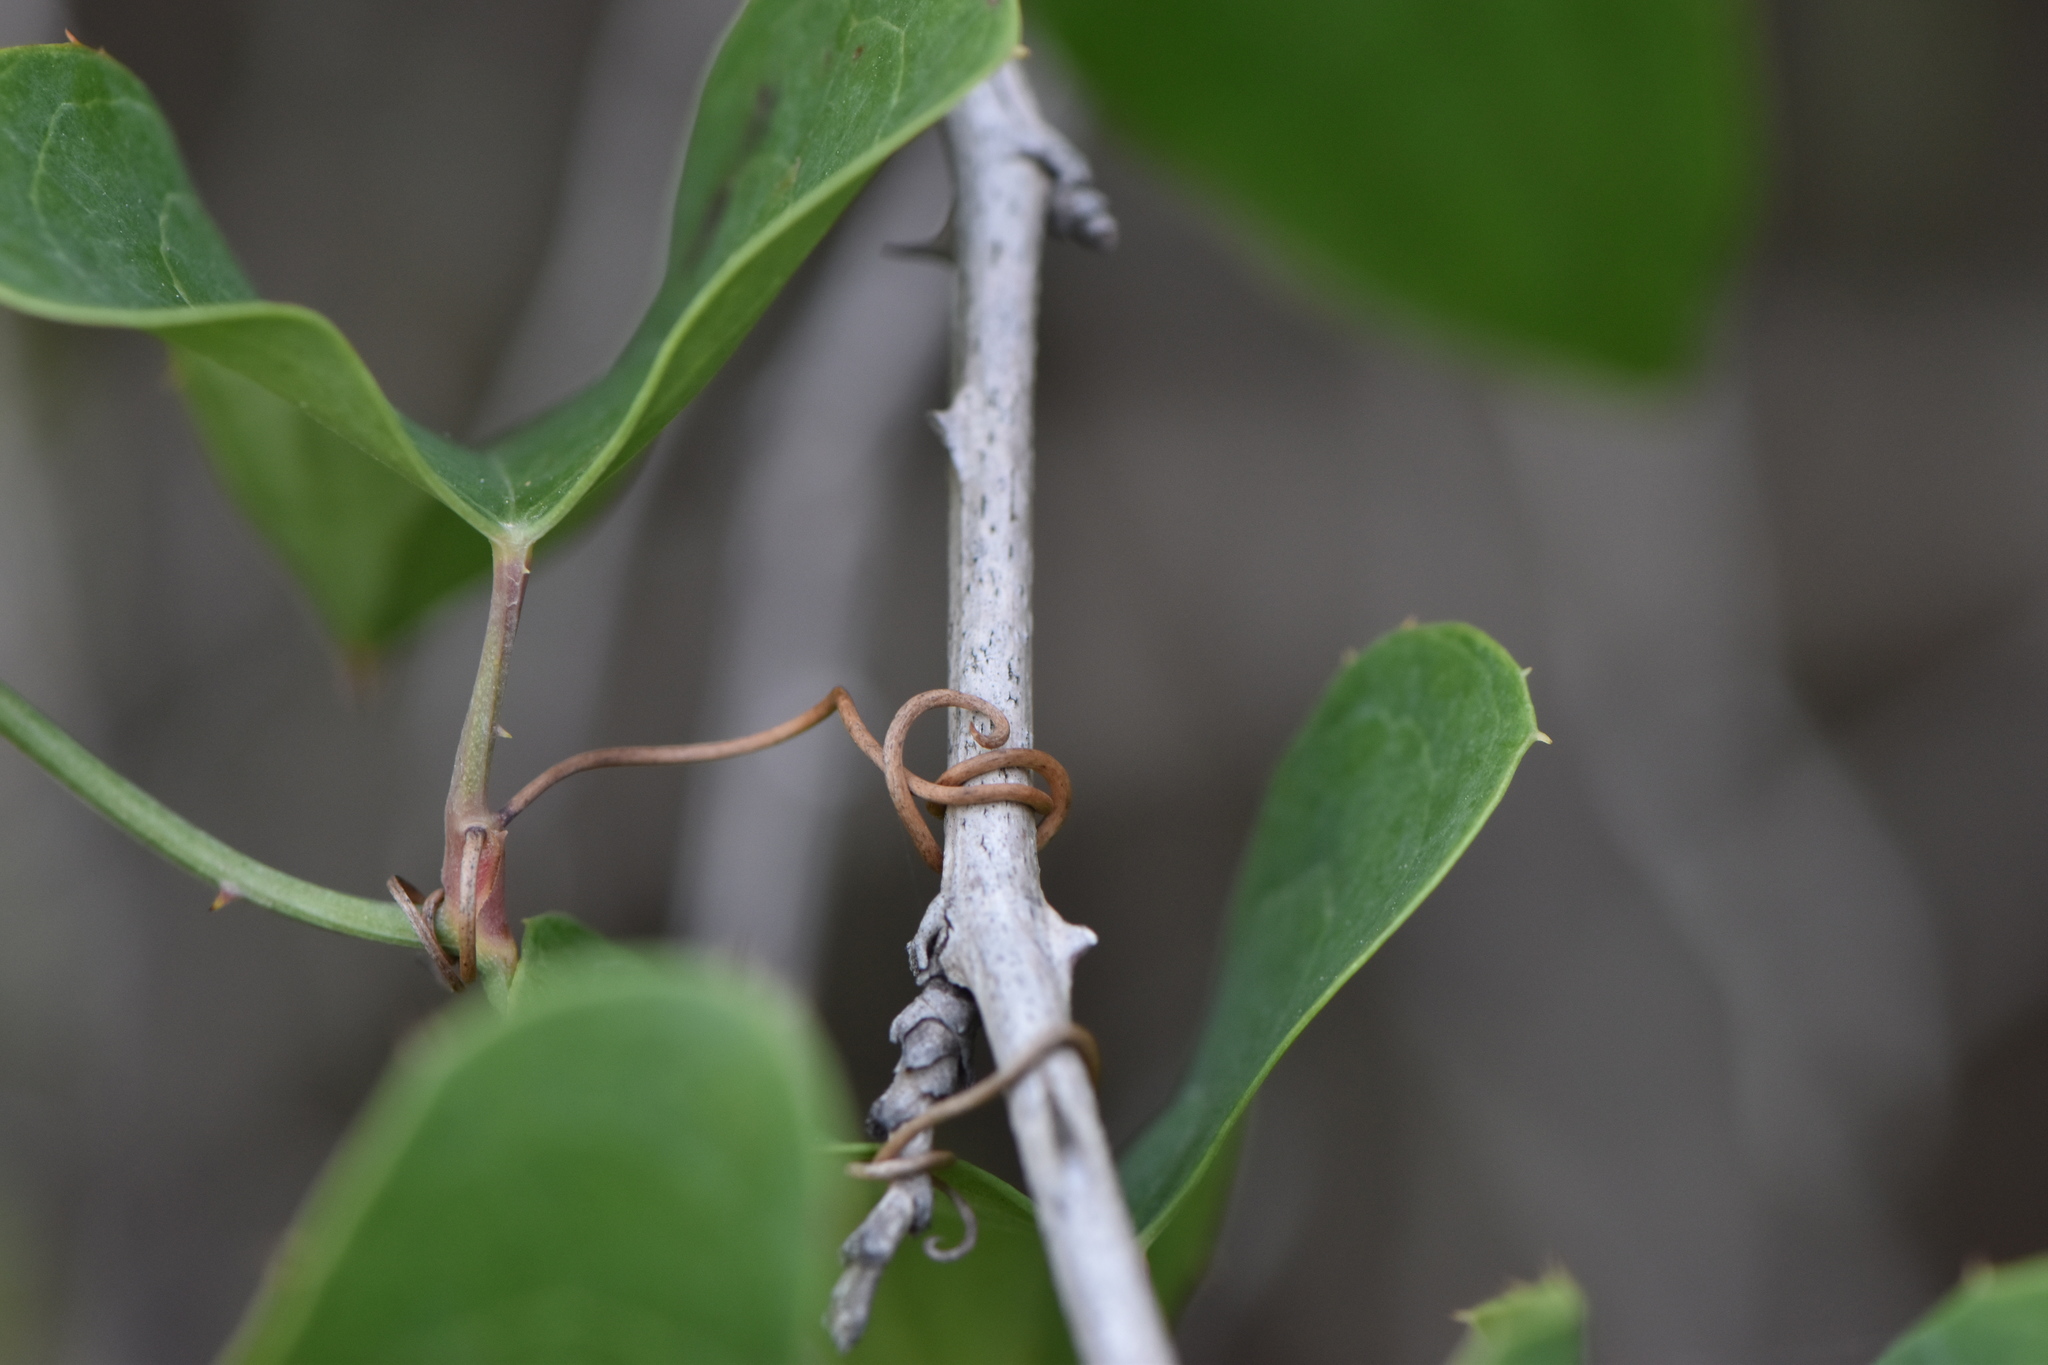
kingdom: Plantae
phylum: Tracheophyta
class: Liliopsida
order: Liliales
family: Smilacaceae
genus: Smilax
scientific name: Smilax aspera
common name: Common smilax
